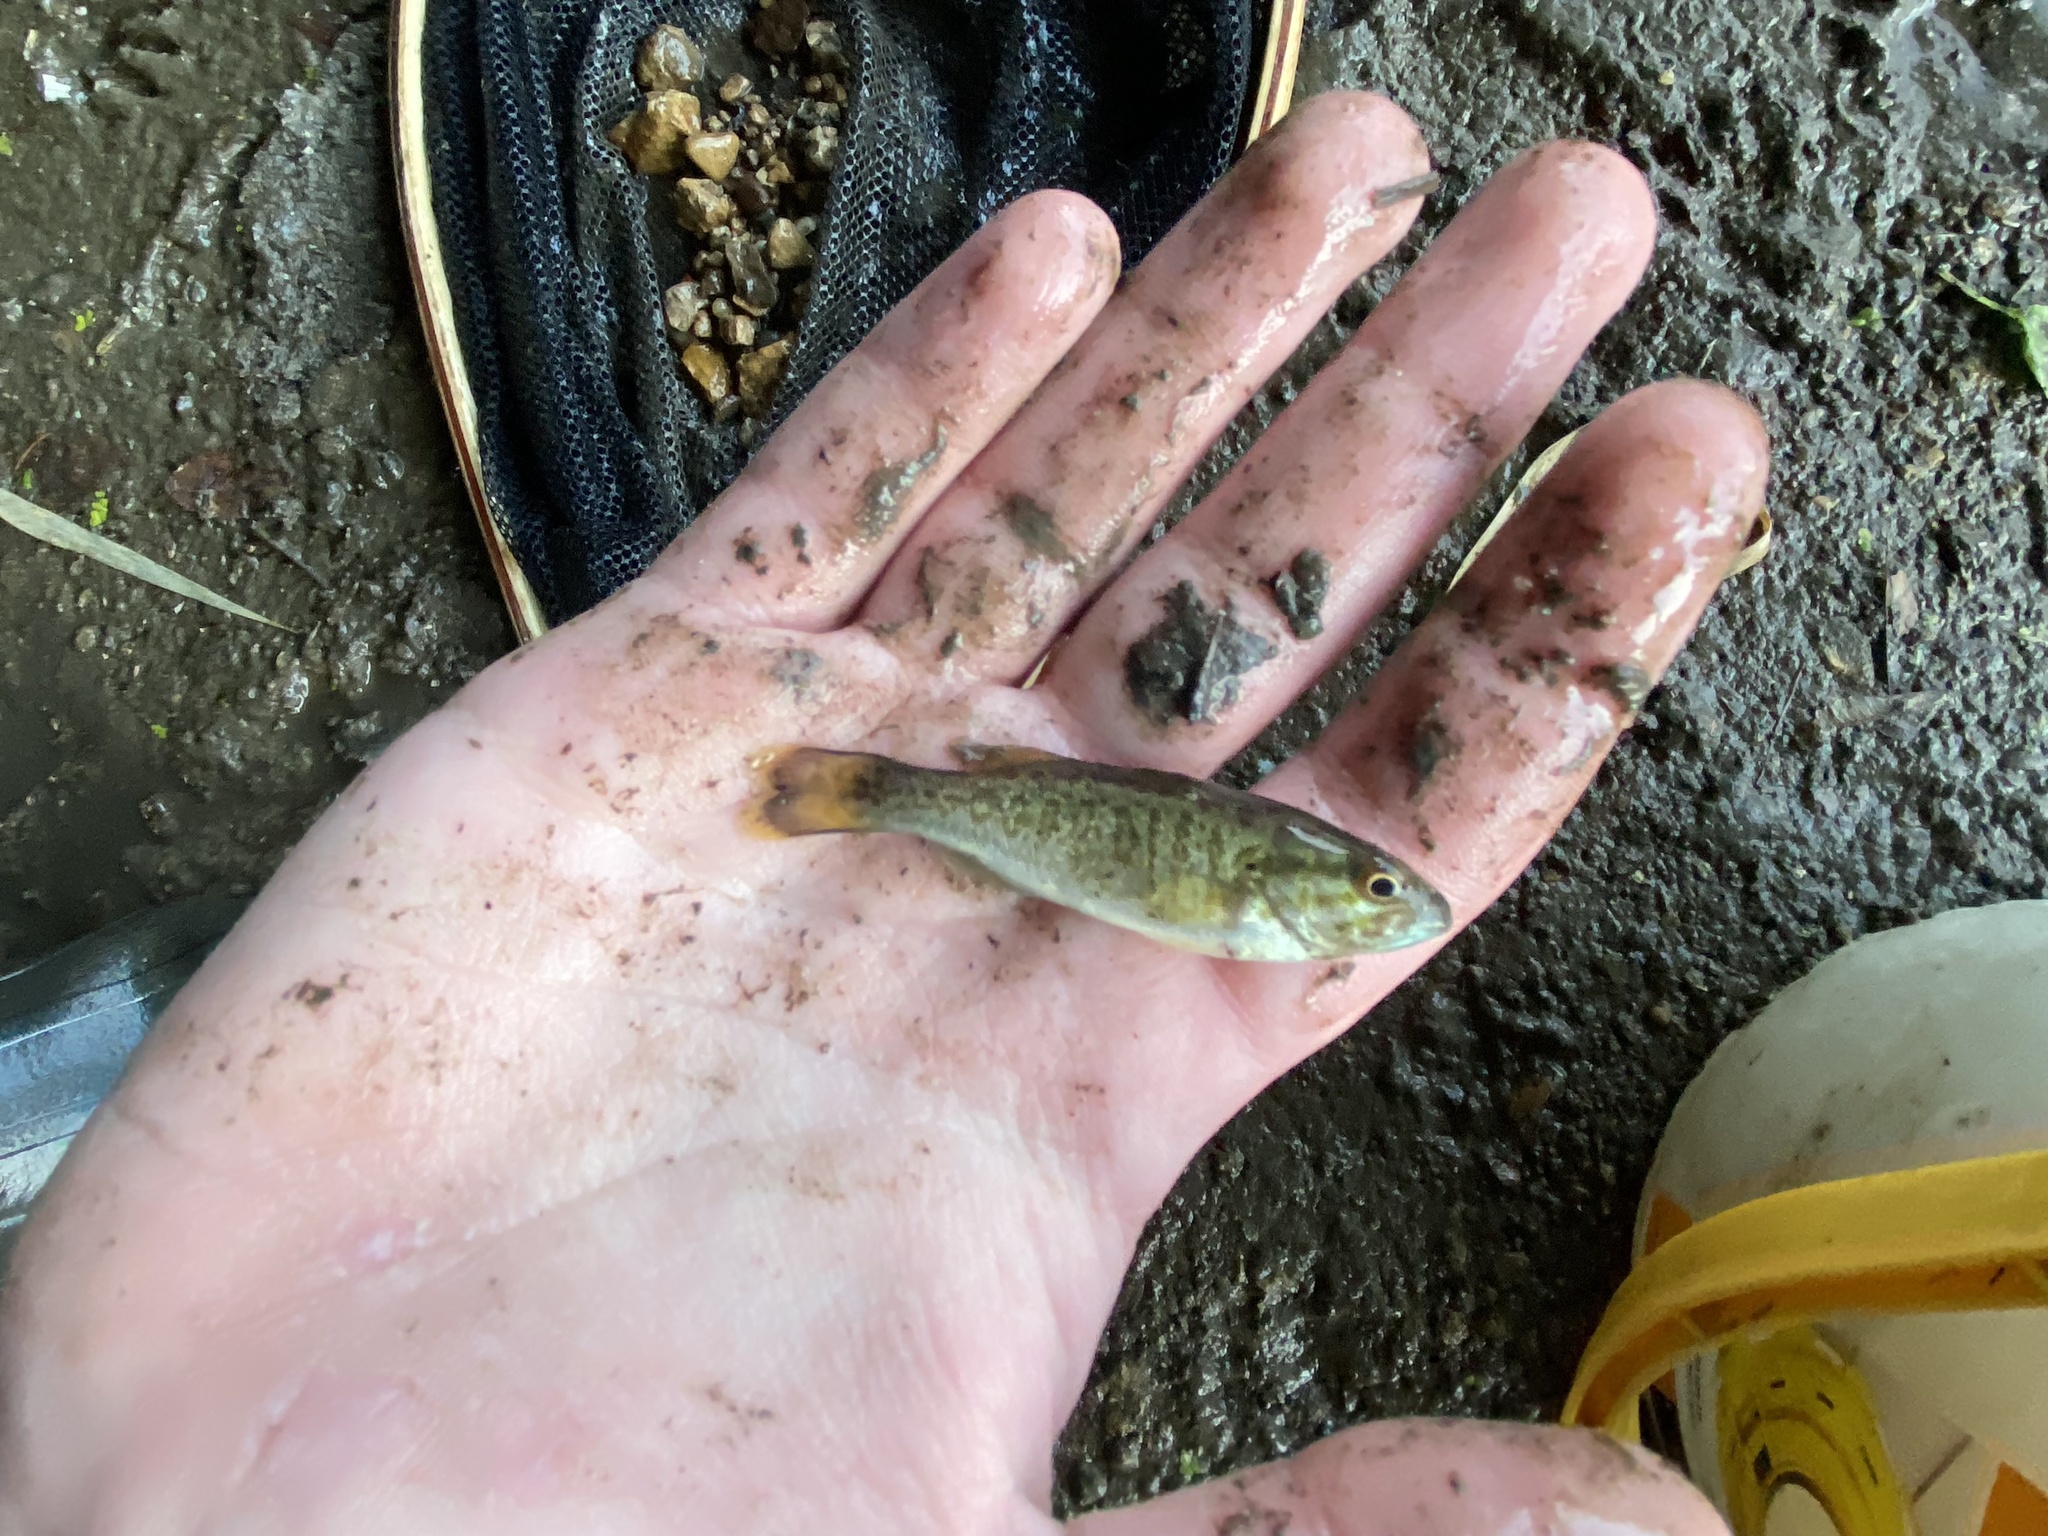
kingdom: Animalia
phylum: Chordata
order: Perciformes
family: Centrarchidae
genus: Micropterus
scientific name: Micropterus dolomieu
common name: Smallmouth bass
